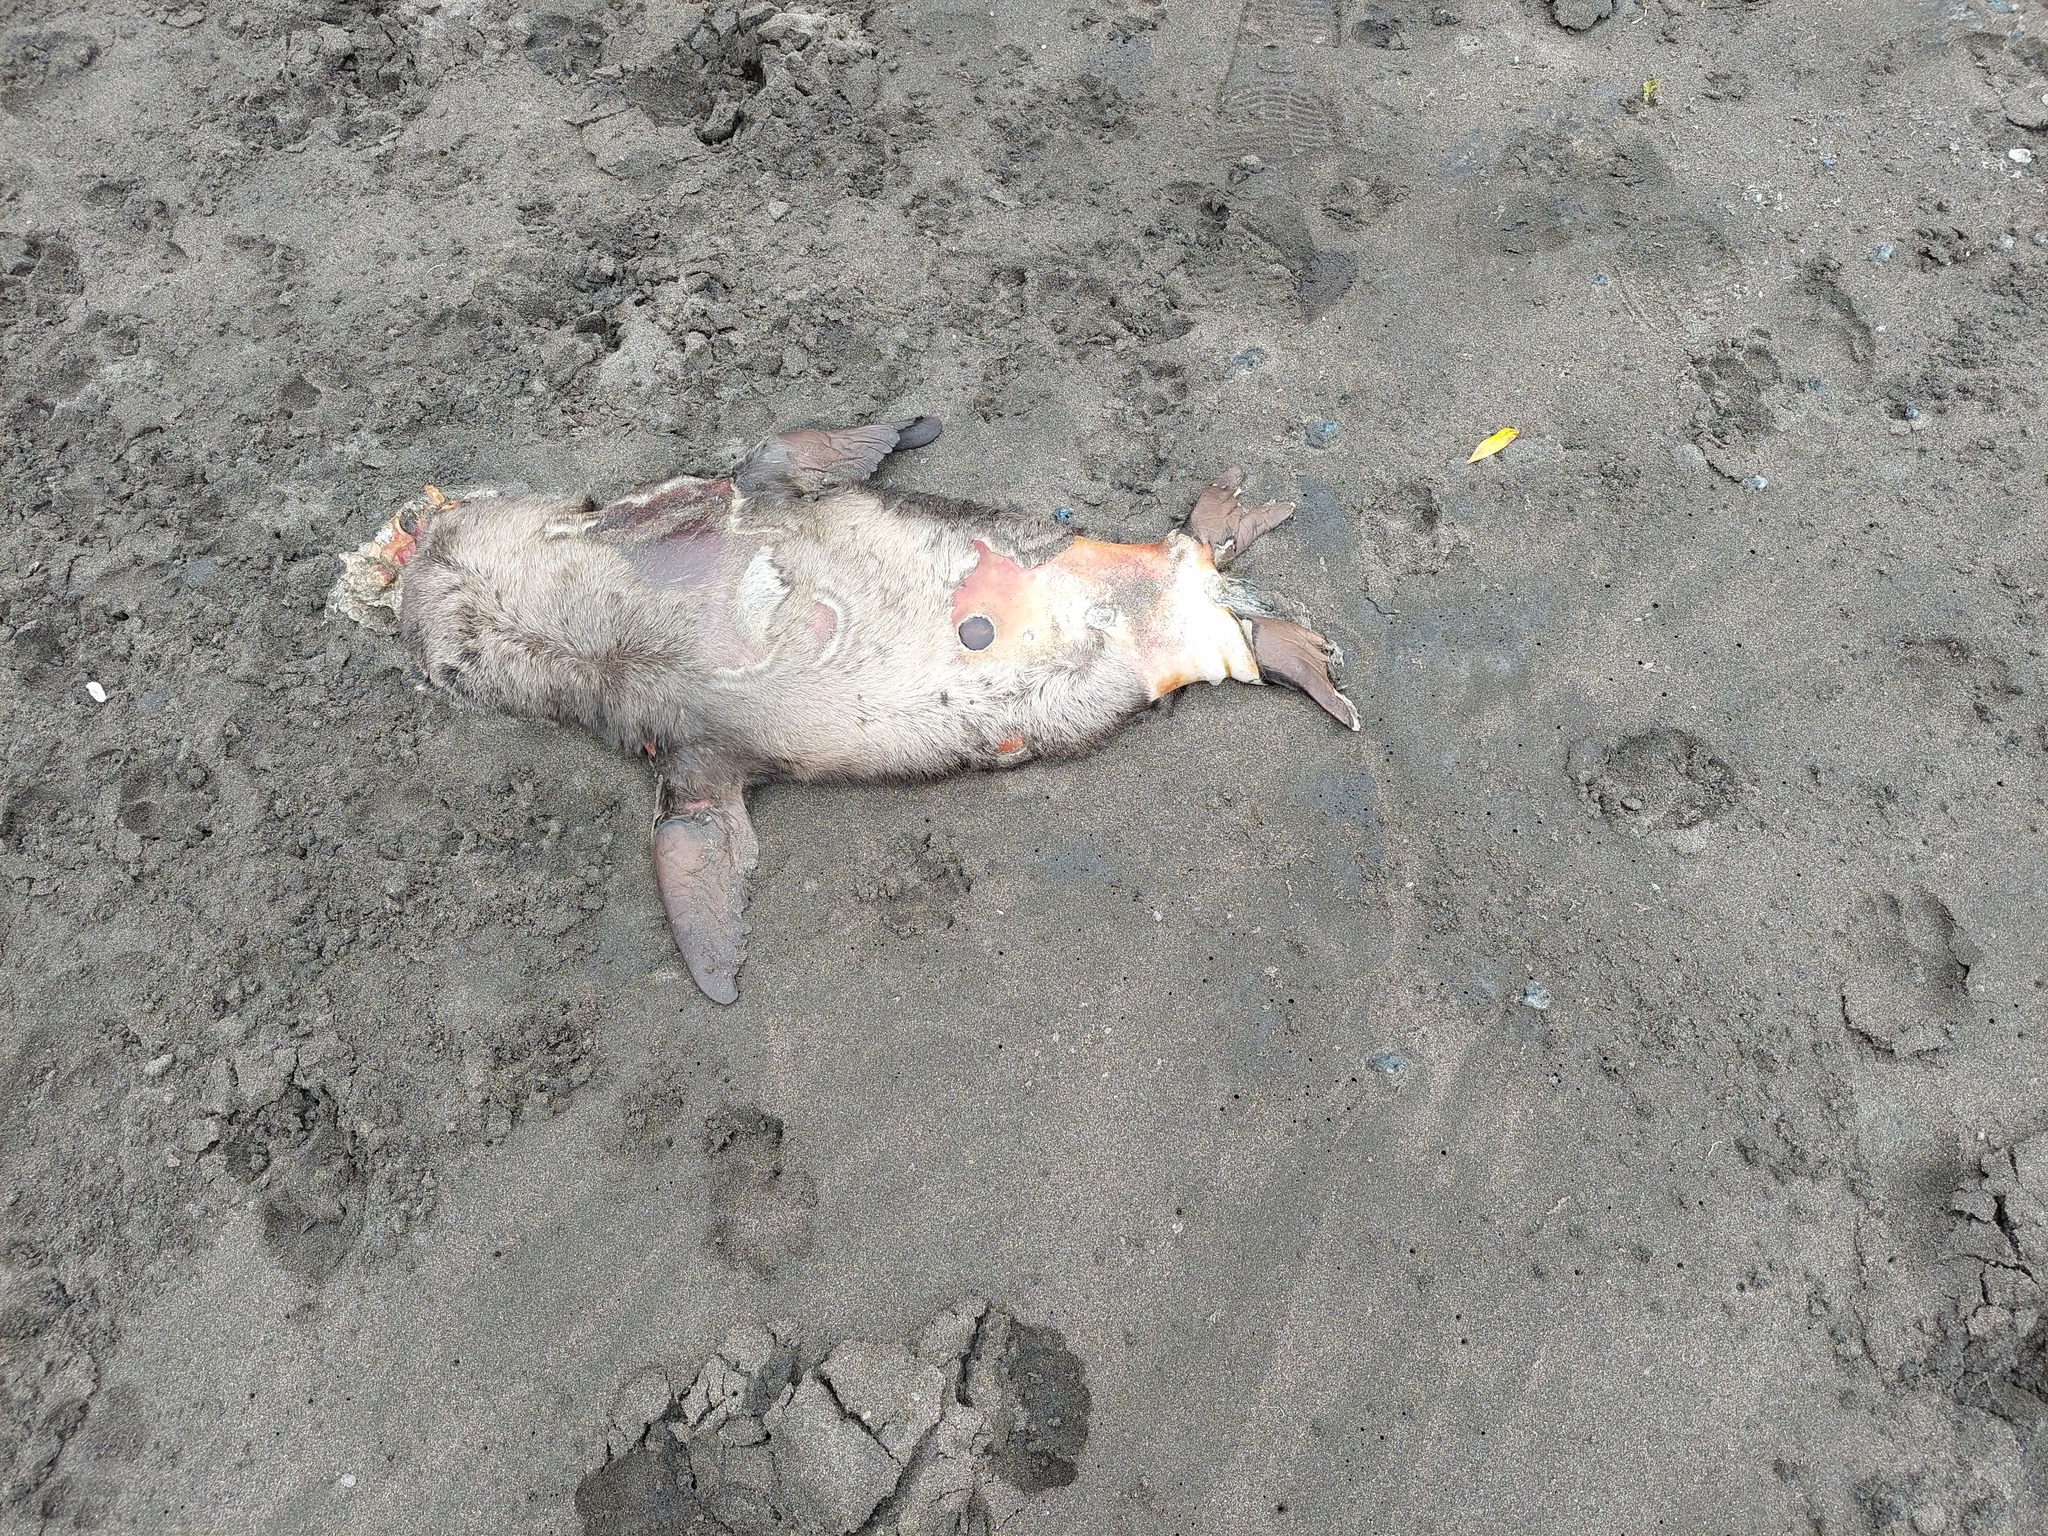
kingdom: Animalia
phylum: Chordata
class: Mammalia
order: Carnivora
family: Otariidae
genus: Arctocephalus
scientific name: Arctocephalus forsteri
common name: New zealand fur seal
